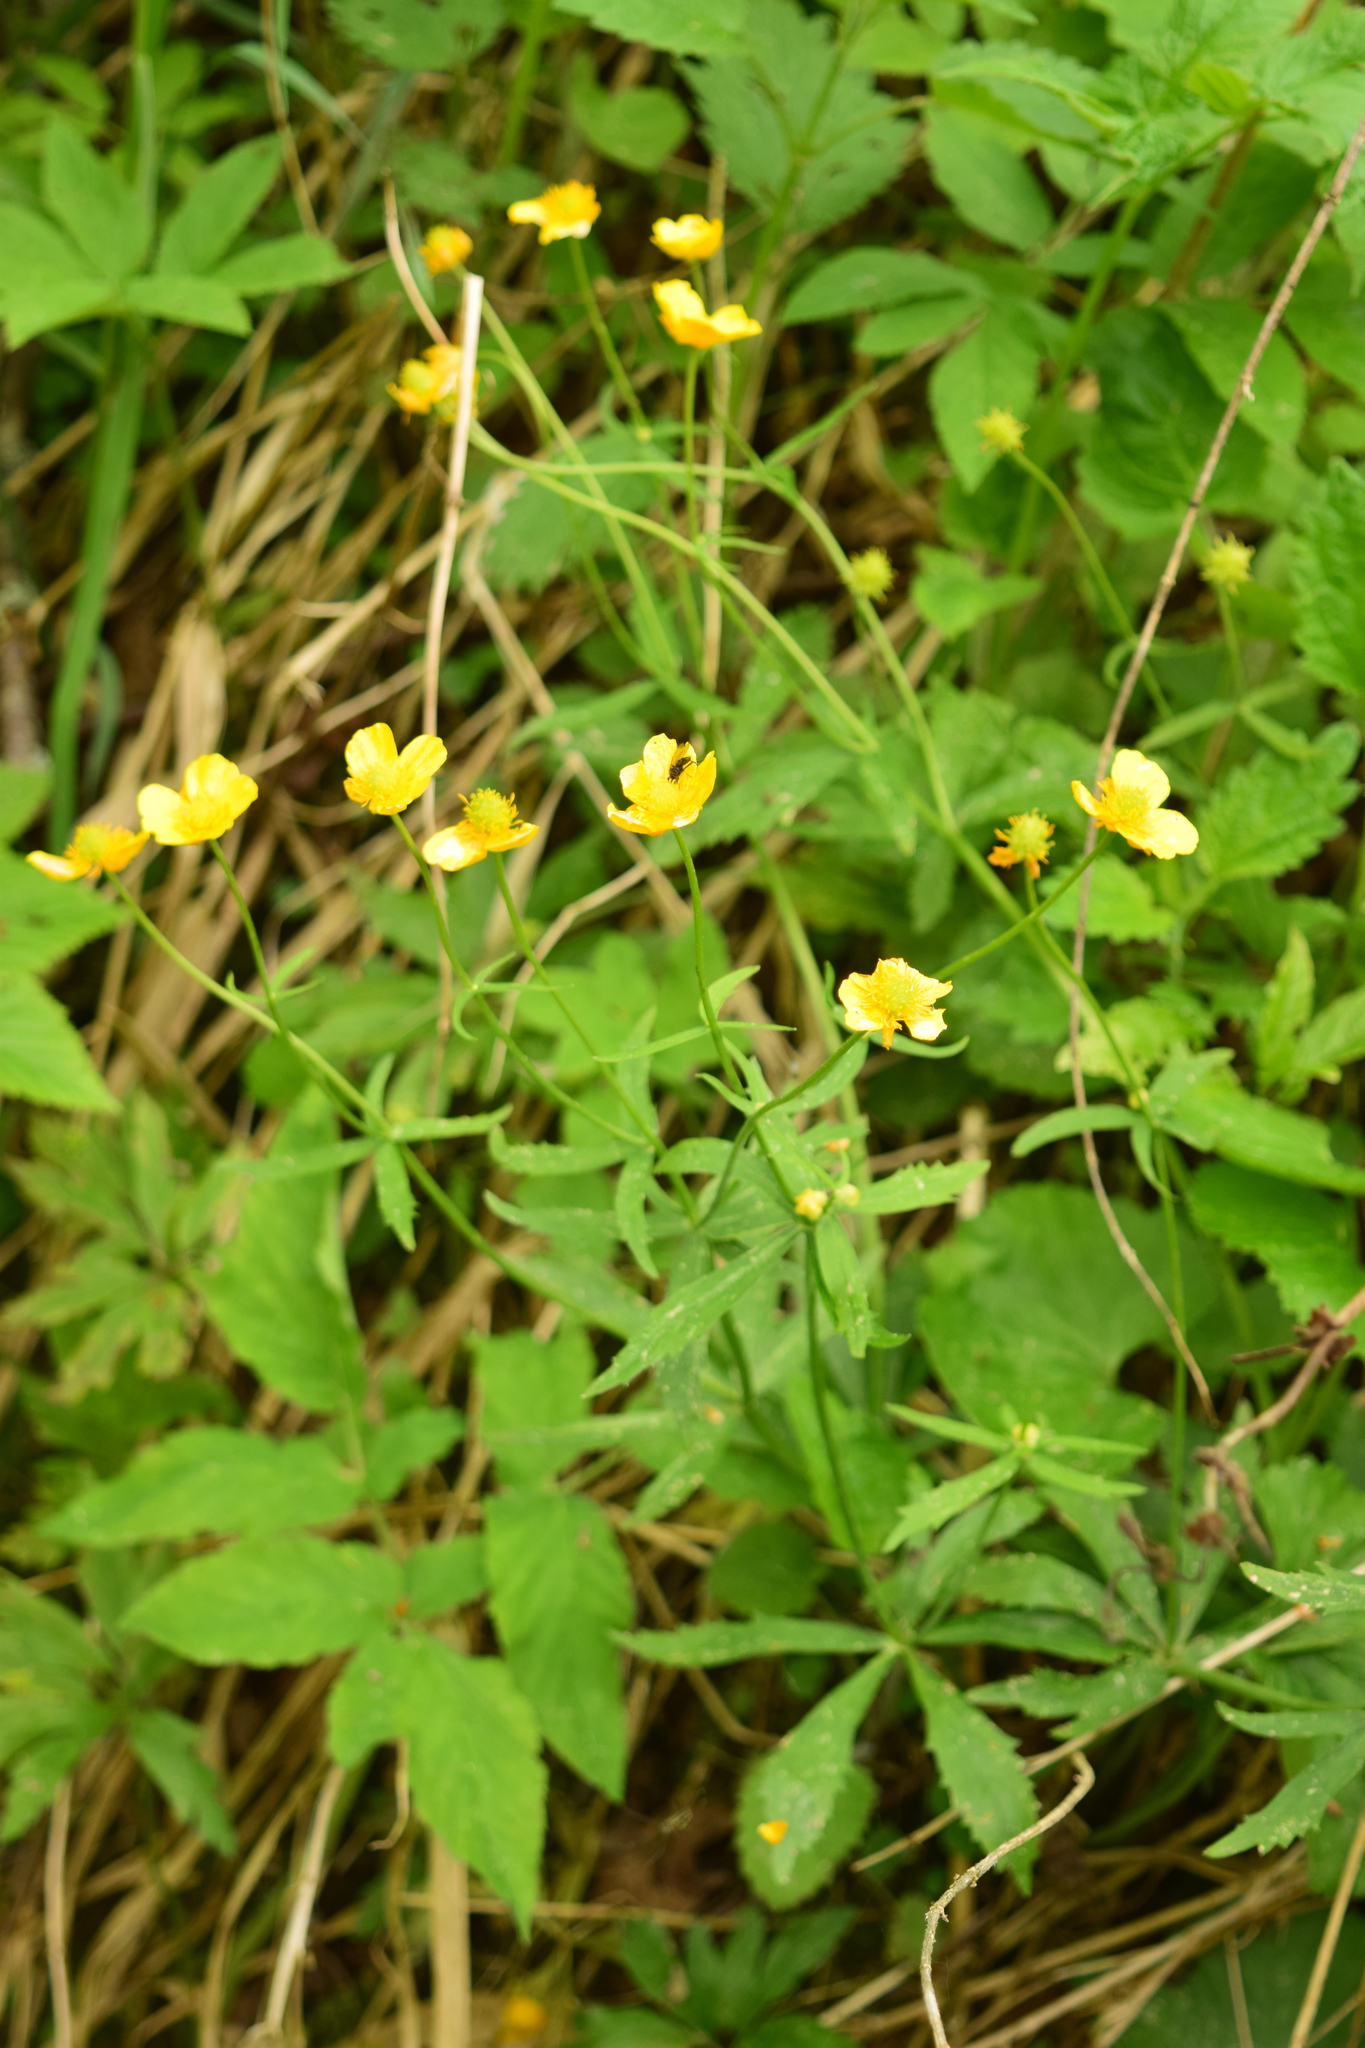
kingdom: Plantae
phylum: Tracheophyta
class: Magnoliopsida
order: Ranunculales
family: Ranunculaceae
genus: Ranunculus
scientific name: Ranunculus cassubicus
